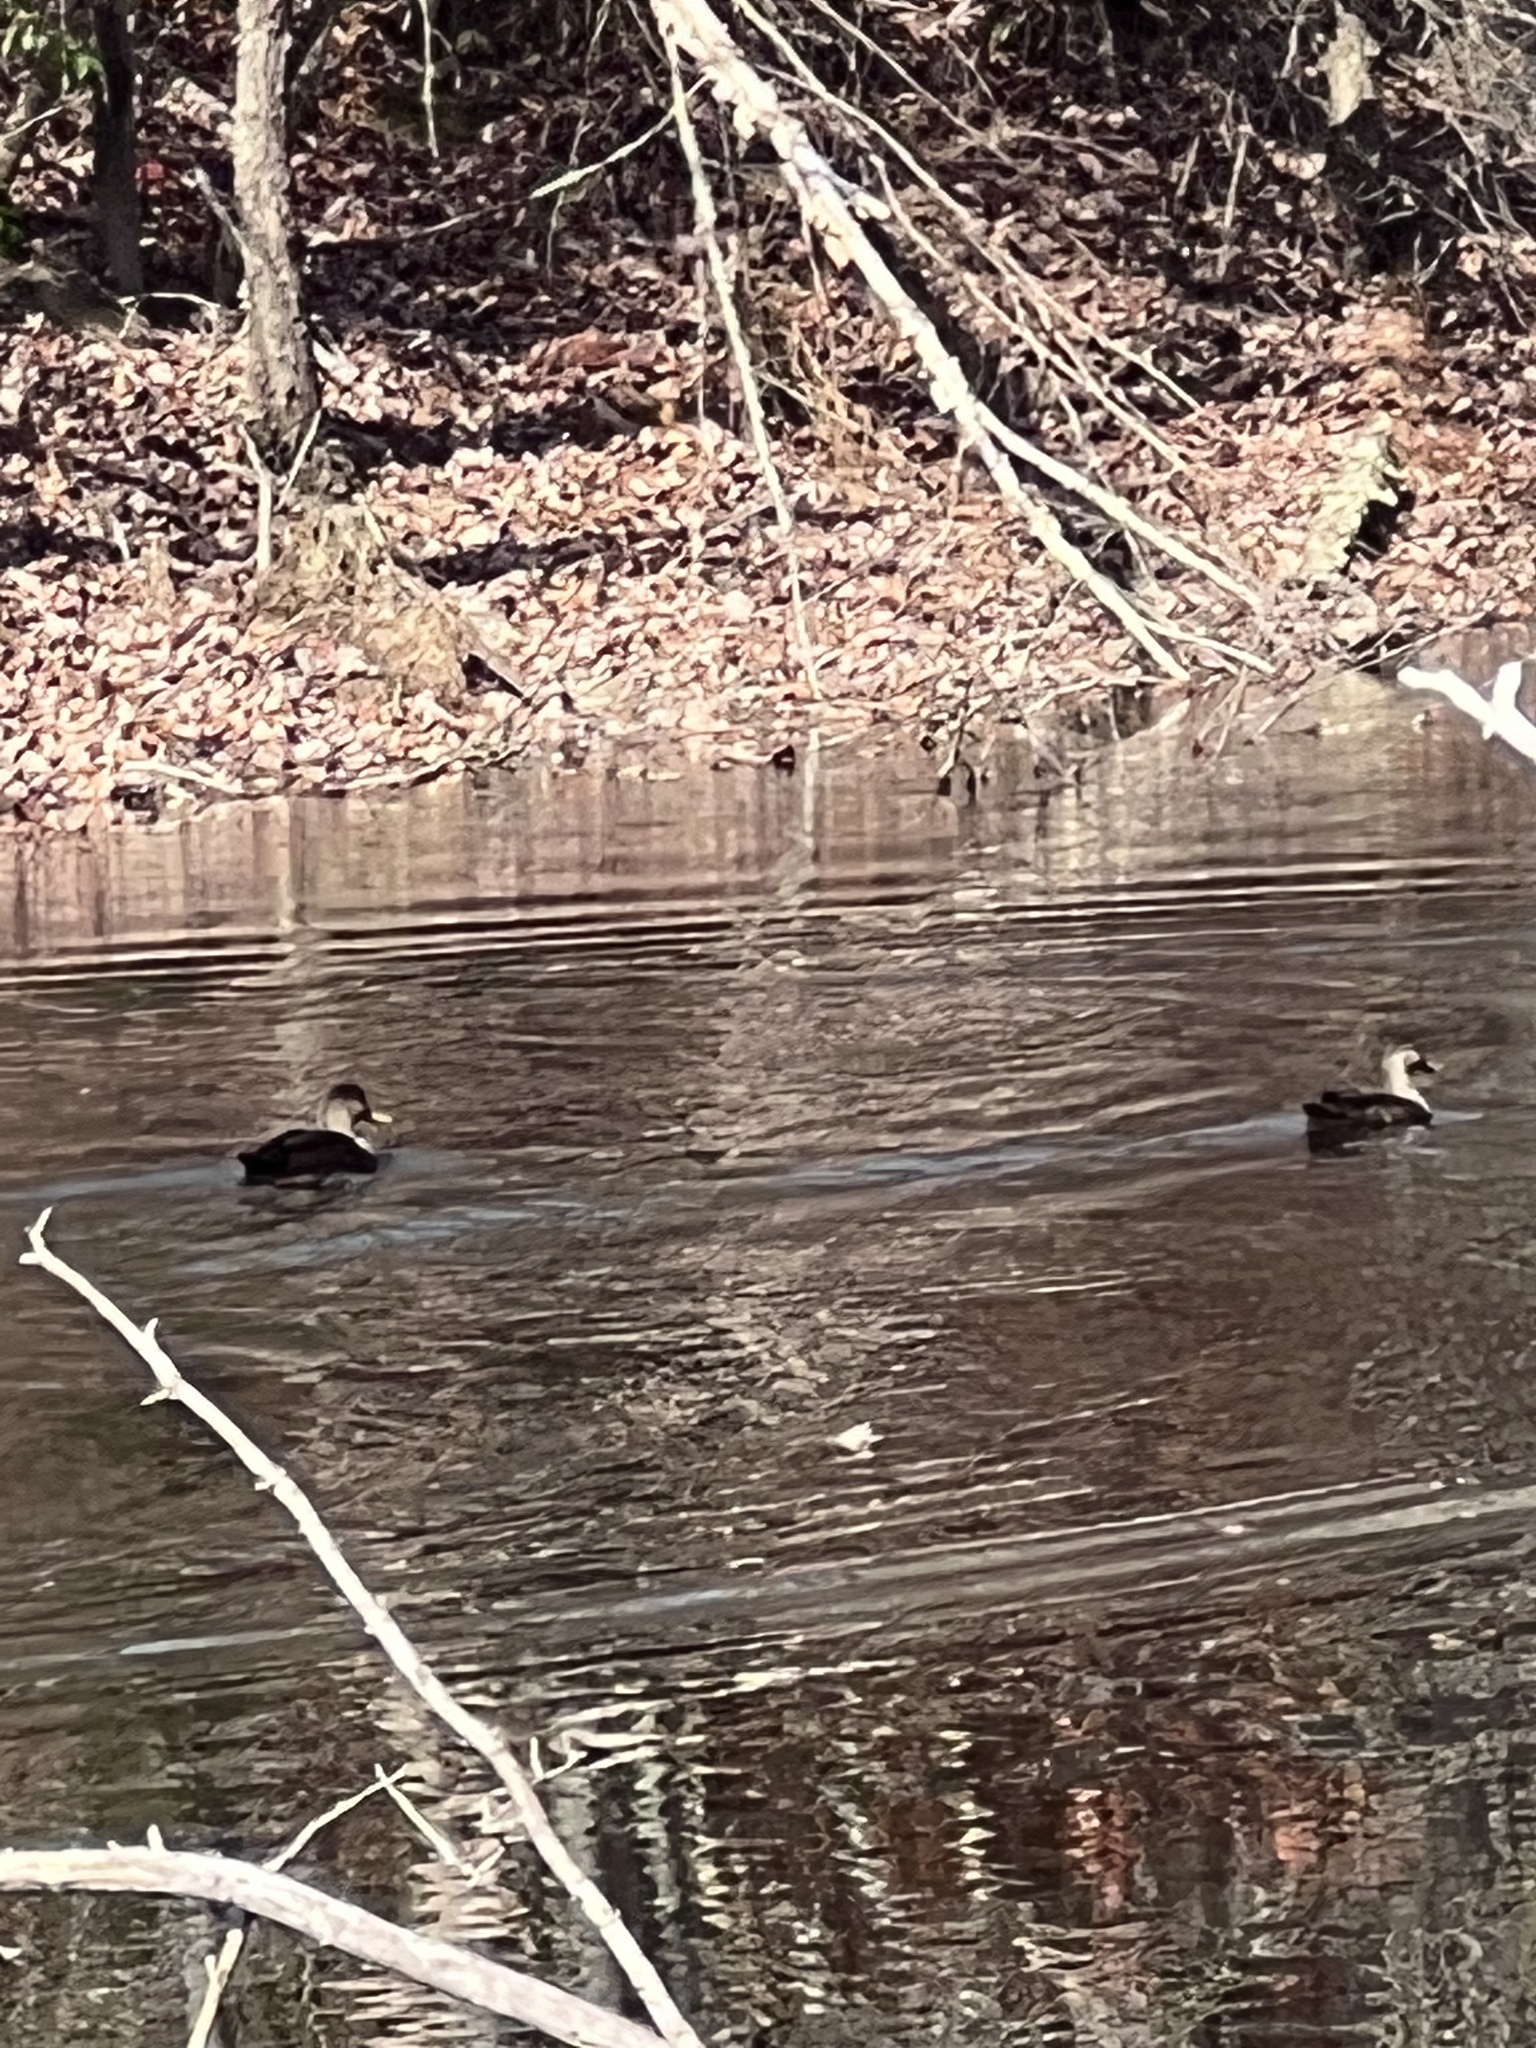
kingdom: Animalia
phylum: Chordata
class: Aves
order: Anseriformes
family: Anatidae
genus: Anas
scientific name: Anas rubripes
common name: American black duck
